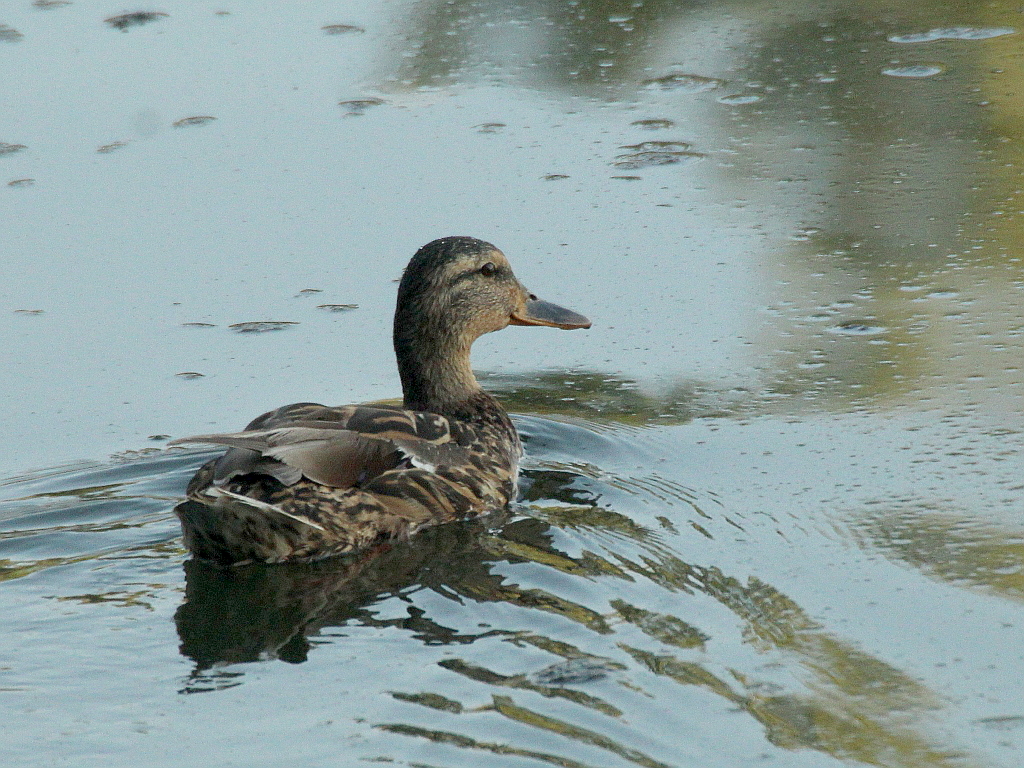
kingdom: Animalia
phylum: Chordata
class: Aves
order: Anseriformes
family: Anatidae
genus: Anas
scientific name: Anas platyrhynchos
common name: Mallard
